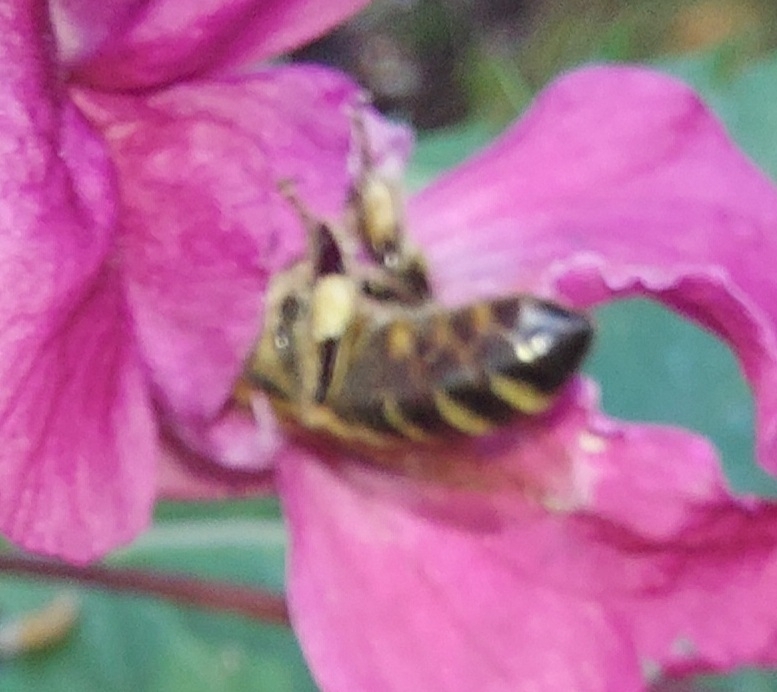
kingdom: Animalia
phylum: Arthropoda
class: Insecta
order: Hymenoptera
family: Apidae
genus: Apis
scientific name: Apis mellifera
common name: Honey bee
